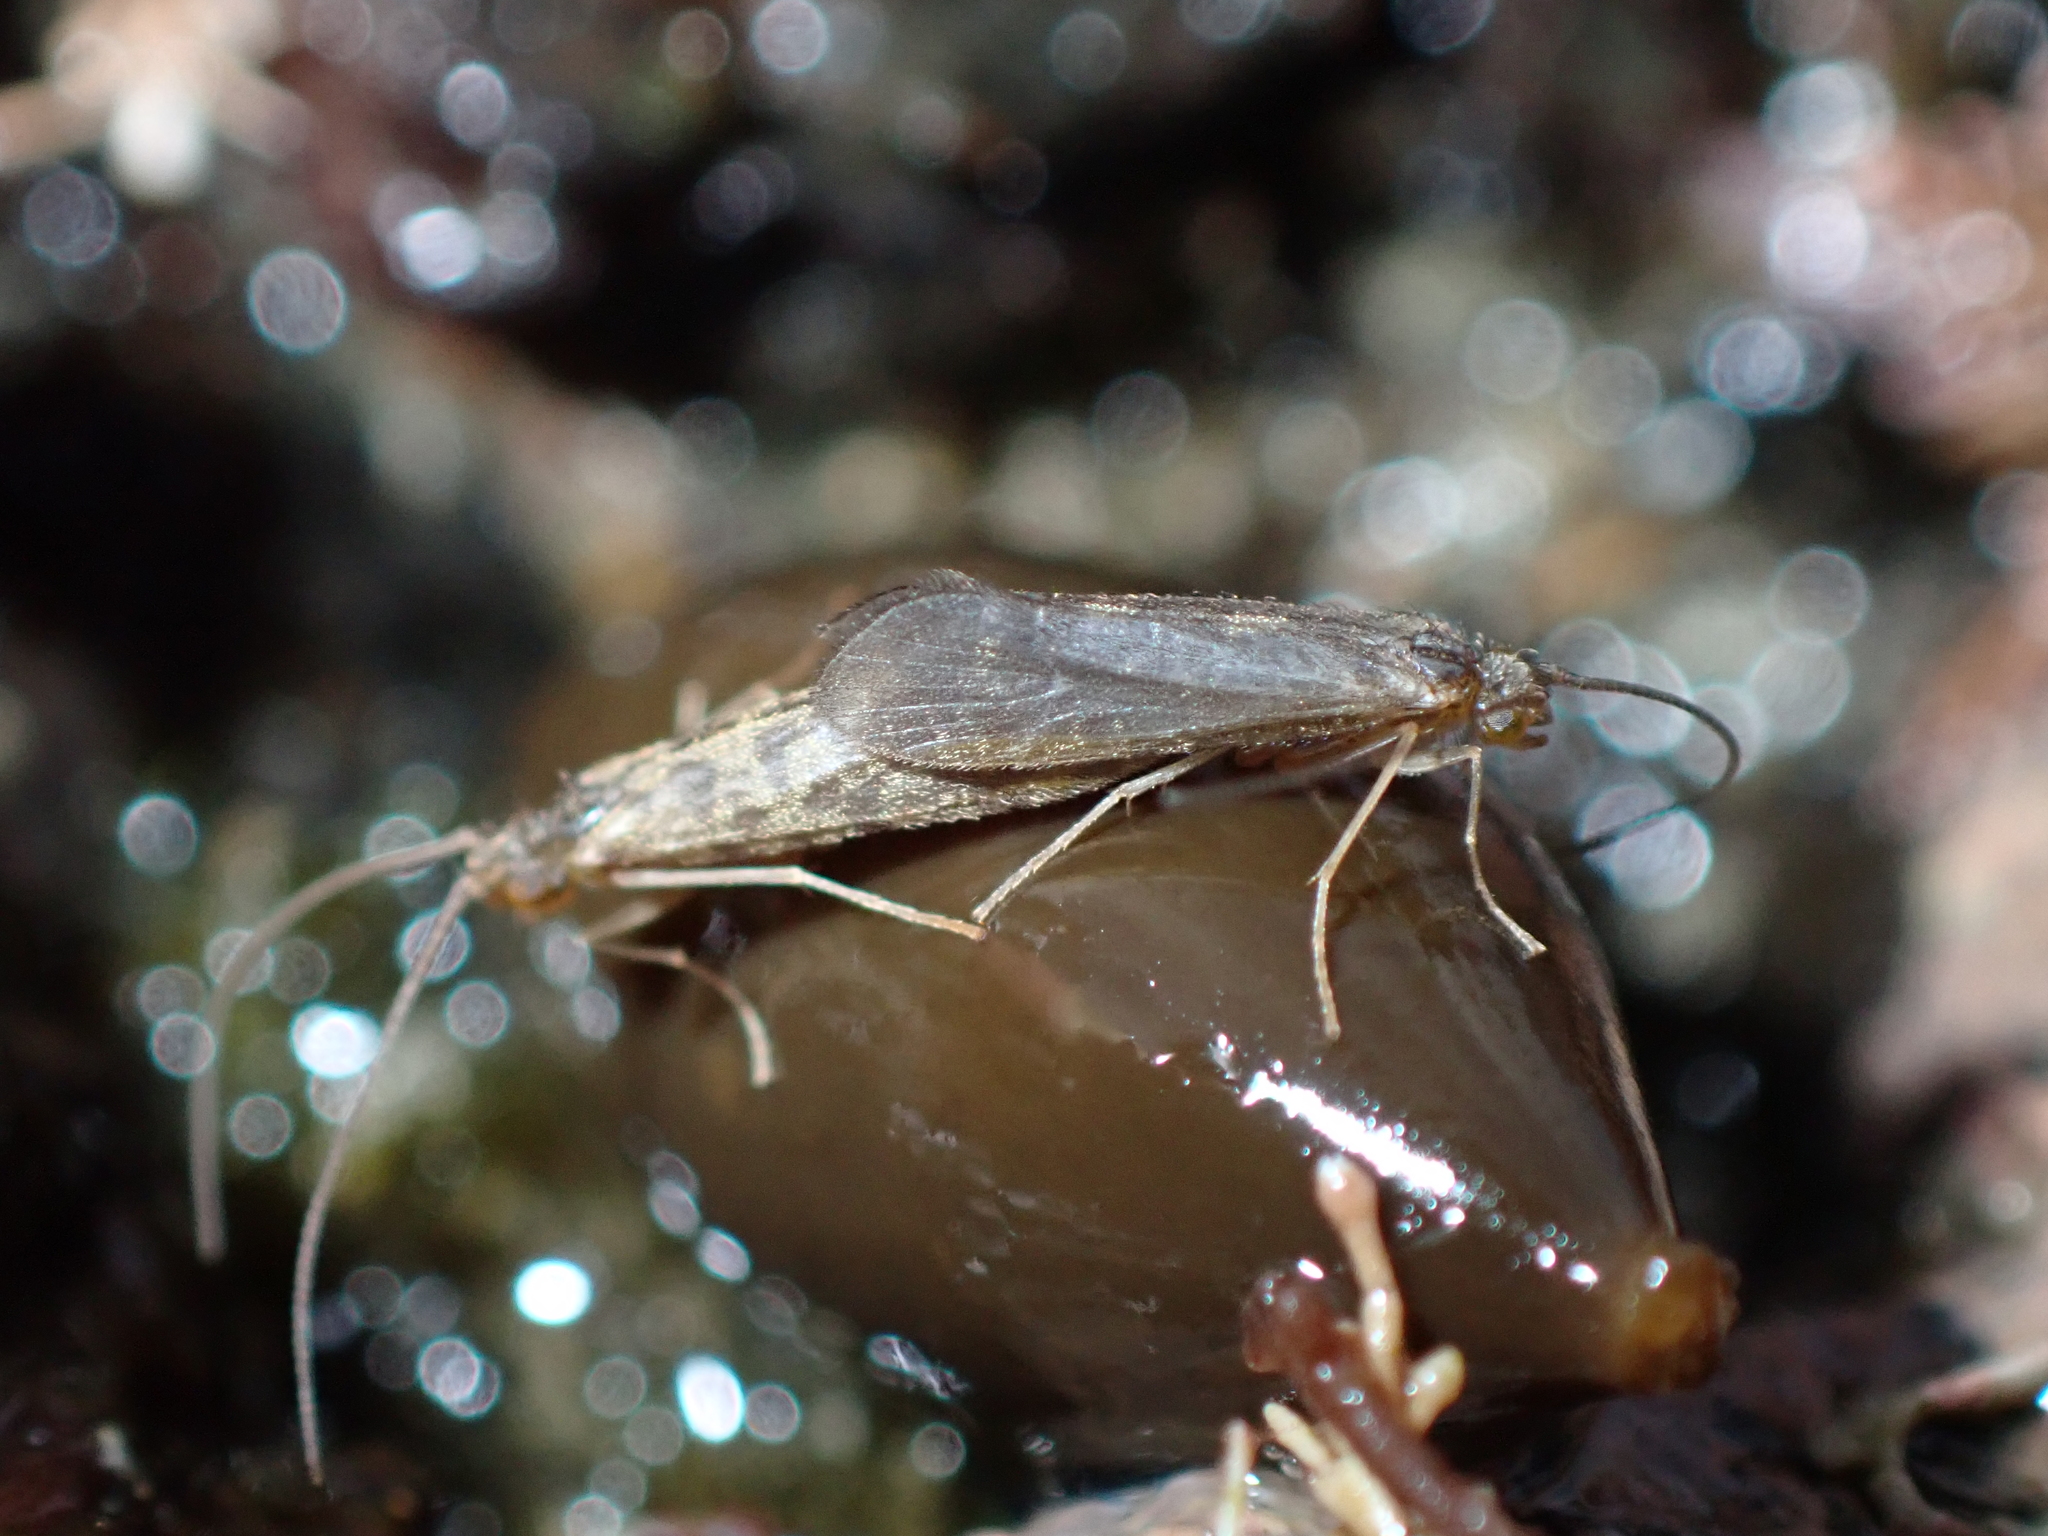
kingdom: Animalia
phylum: Arthropoda
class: Insecta
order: Trichoptera
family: Chathamiidae
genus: Philanisus
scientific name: Philanisus plebeius
